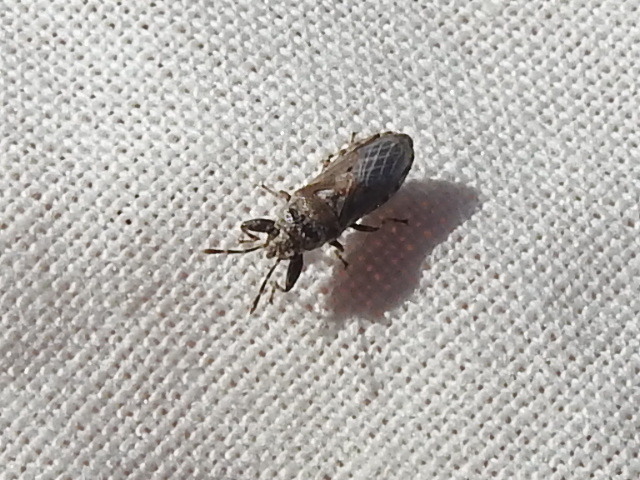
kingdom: Animalia
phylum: Arthropoda
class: Insecta
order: Hemiptera
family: Pachygronthidae
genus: Phlegyas
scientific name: Phlegyas annulicrus
